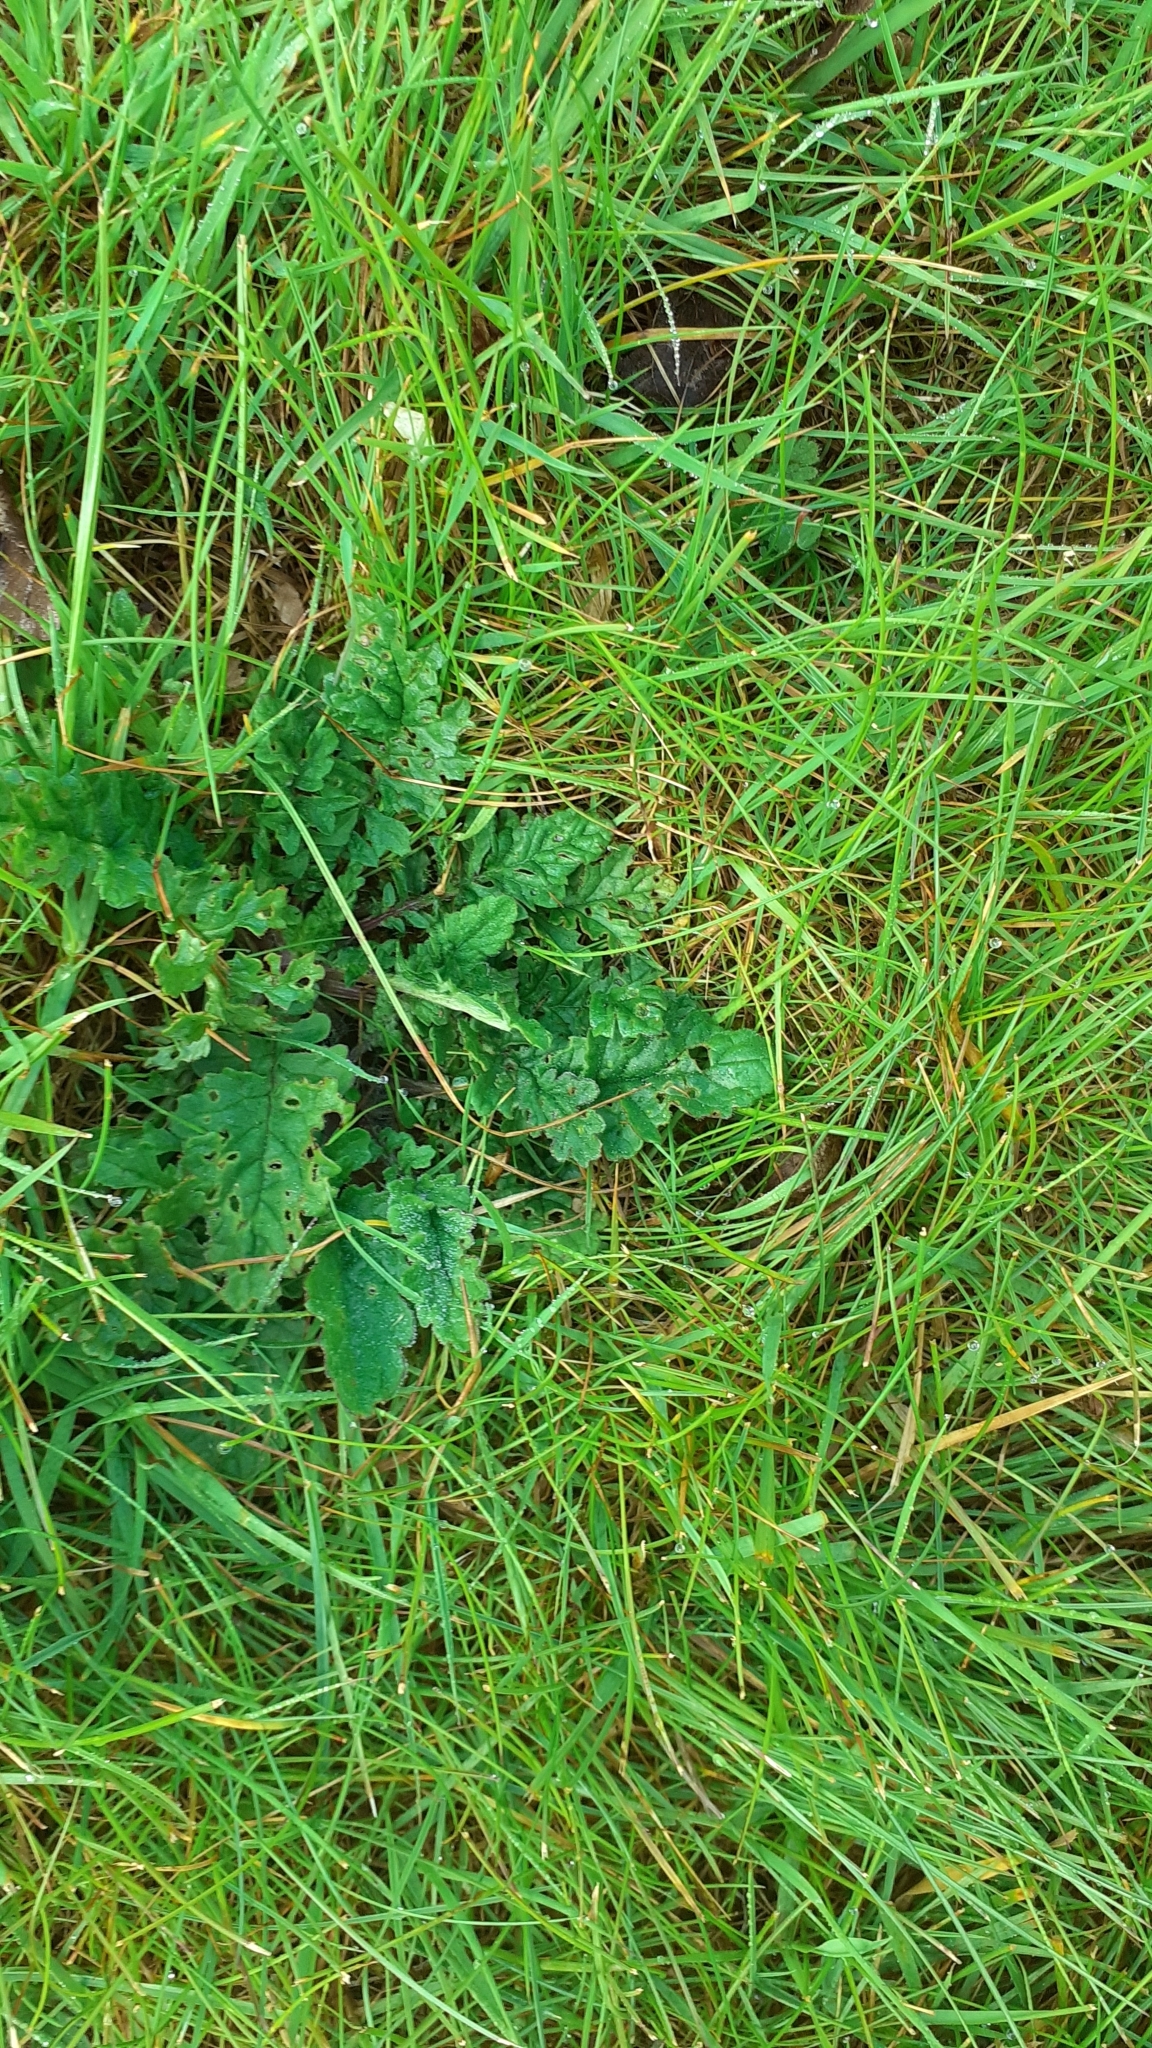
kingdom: Plantae
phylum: Tracheophyta
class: Magnoliopsida
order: Asterales
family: Asteraceae
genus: Jacobaea
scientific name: Jacobaea vulgaris
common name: Stinking willie
